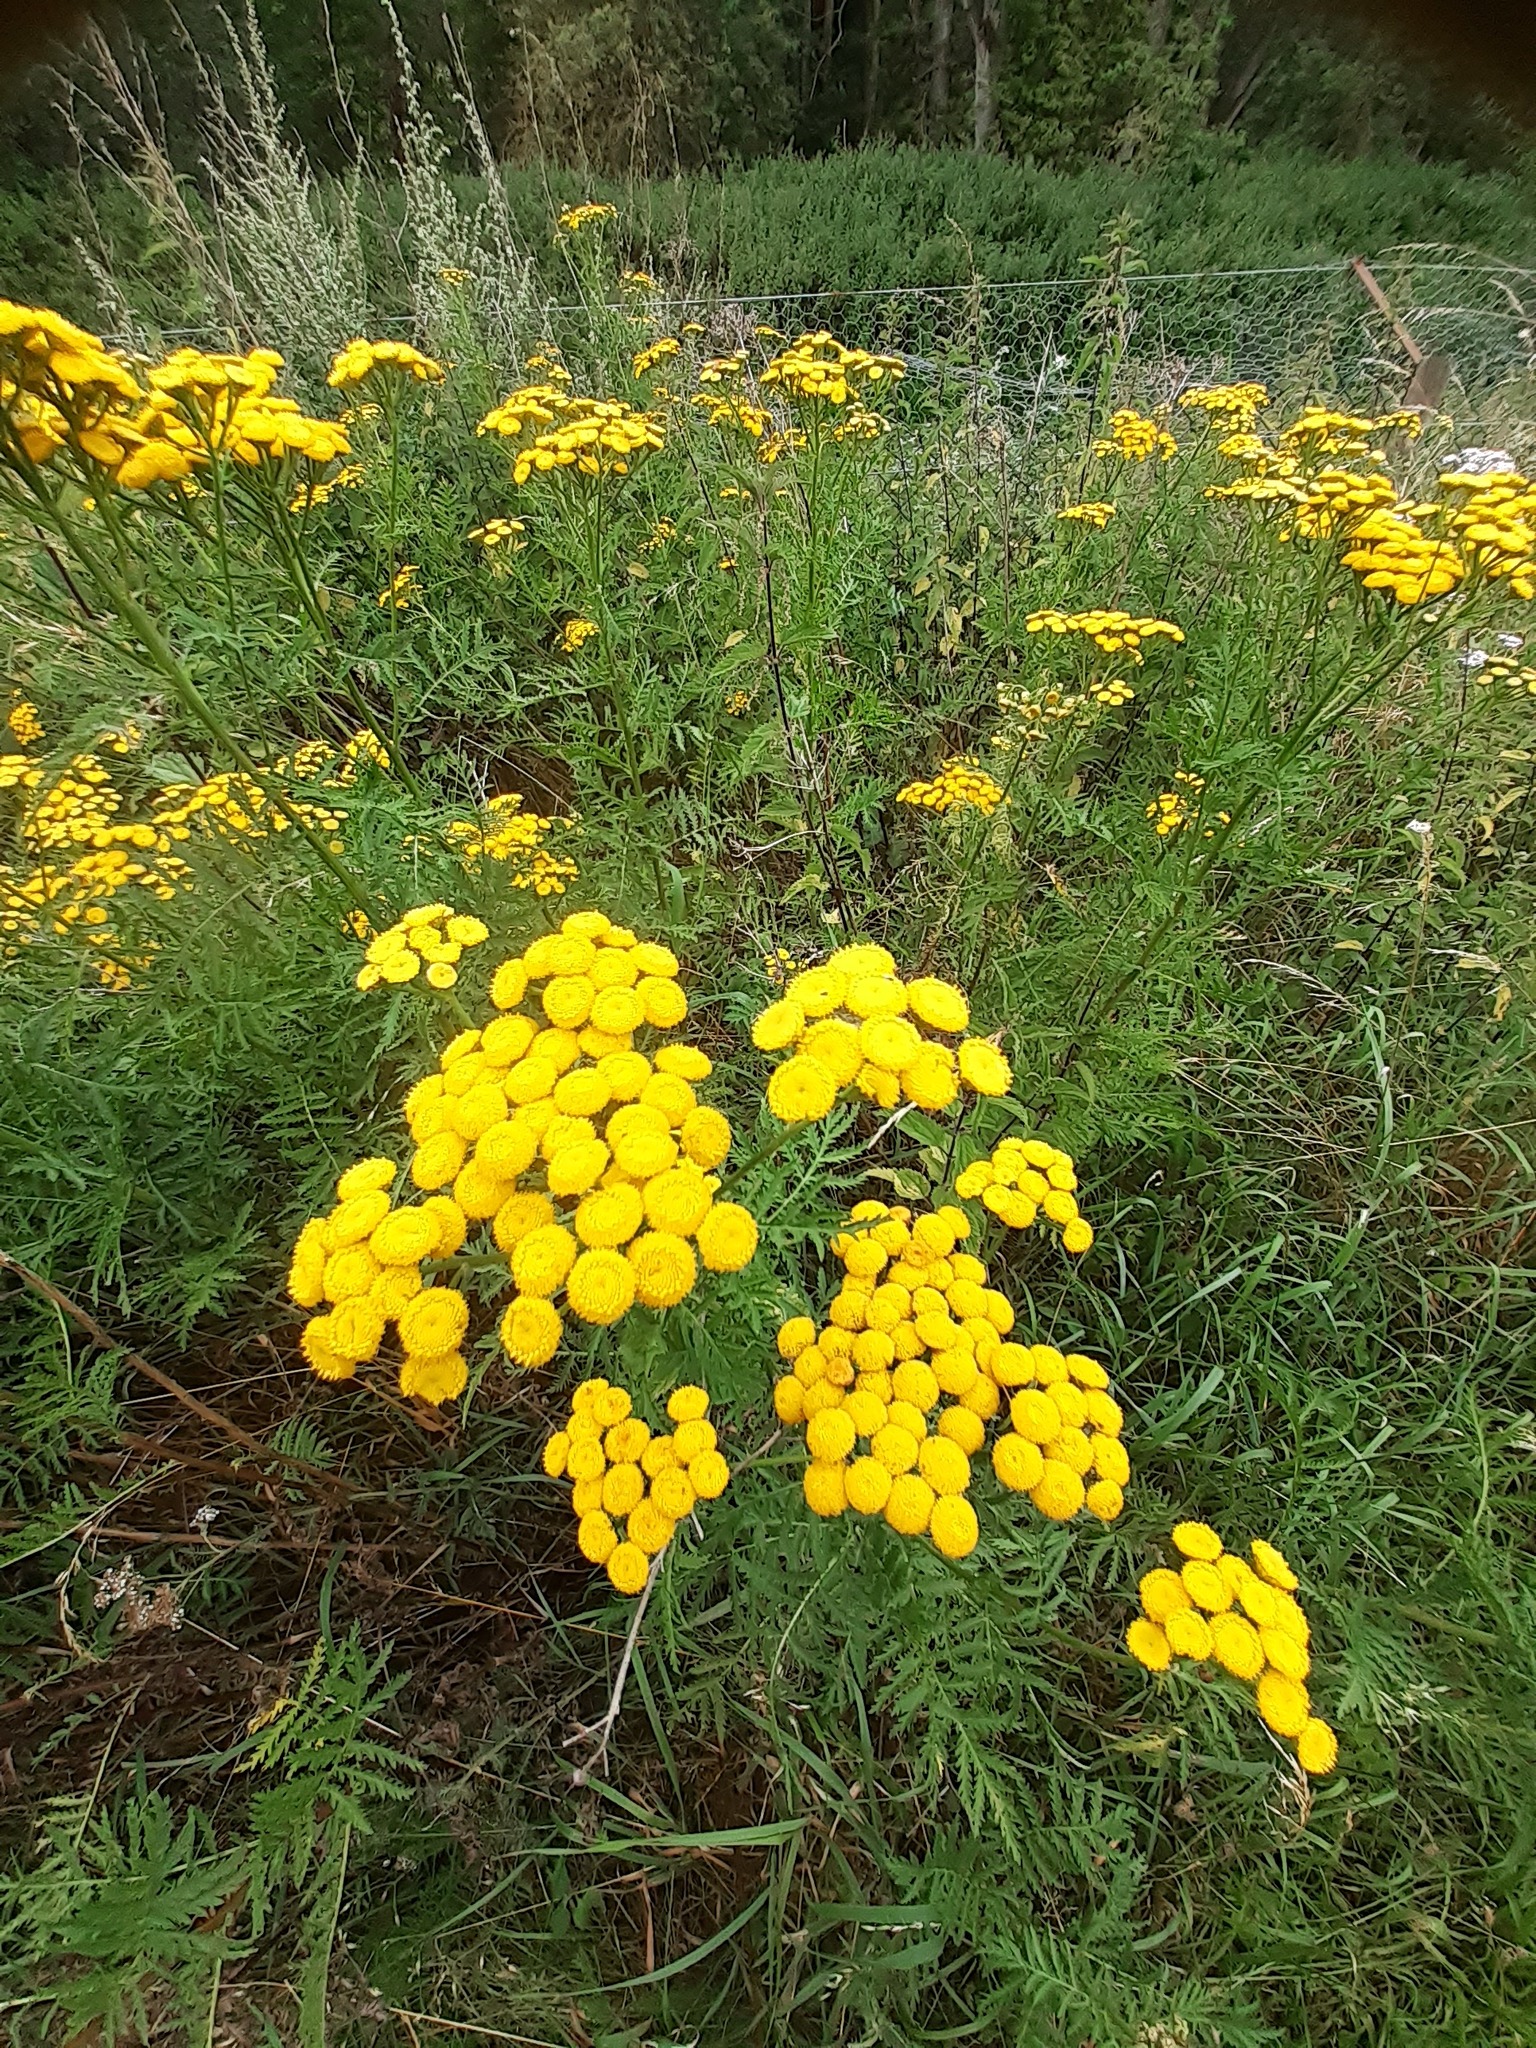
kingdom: Plantae
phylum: Tracheophyta
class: Magnoliopsida
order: Asterales
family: Asteraceae
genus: Tanacetum
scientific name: Tanacetum vulgare
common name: Common tansy
